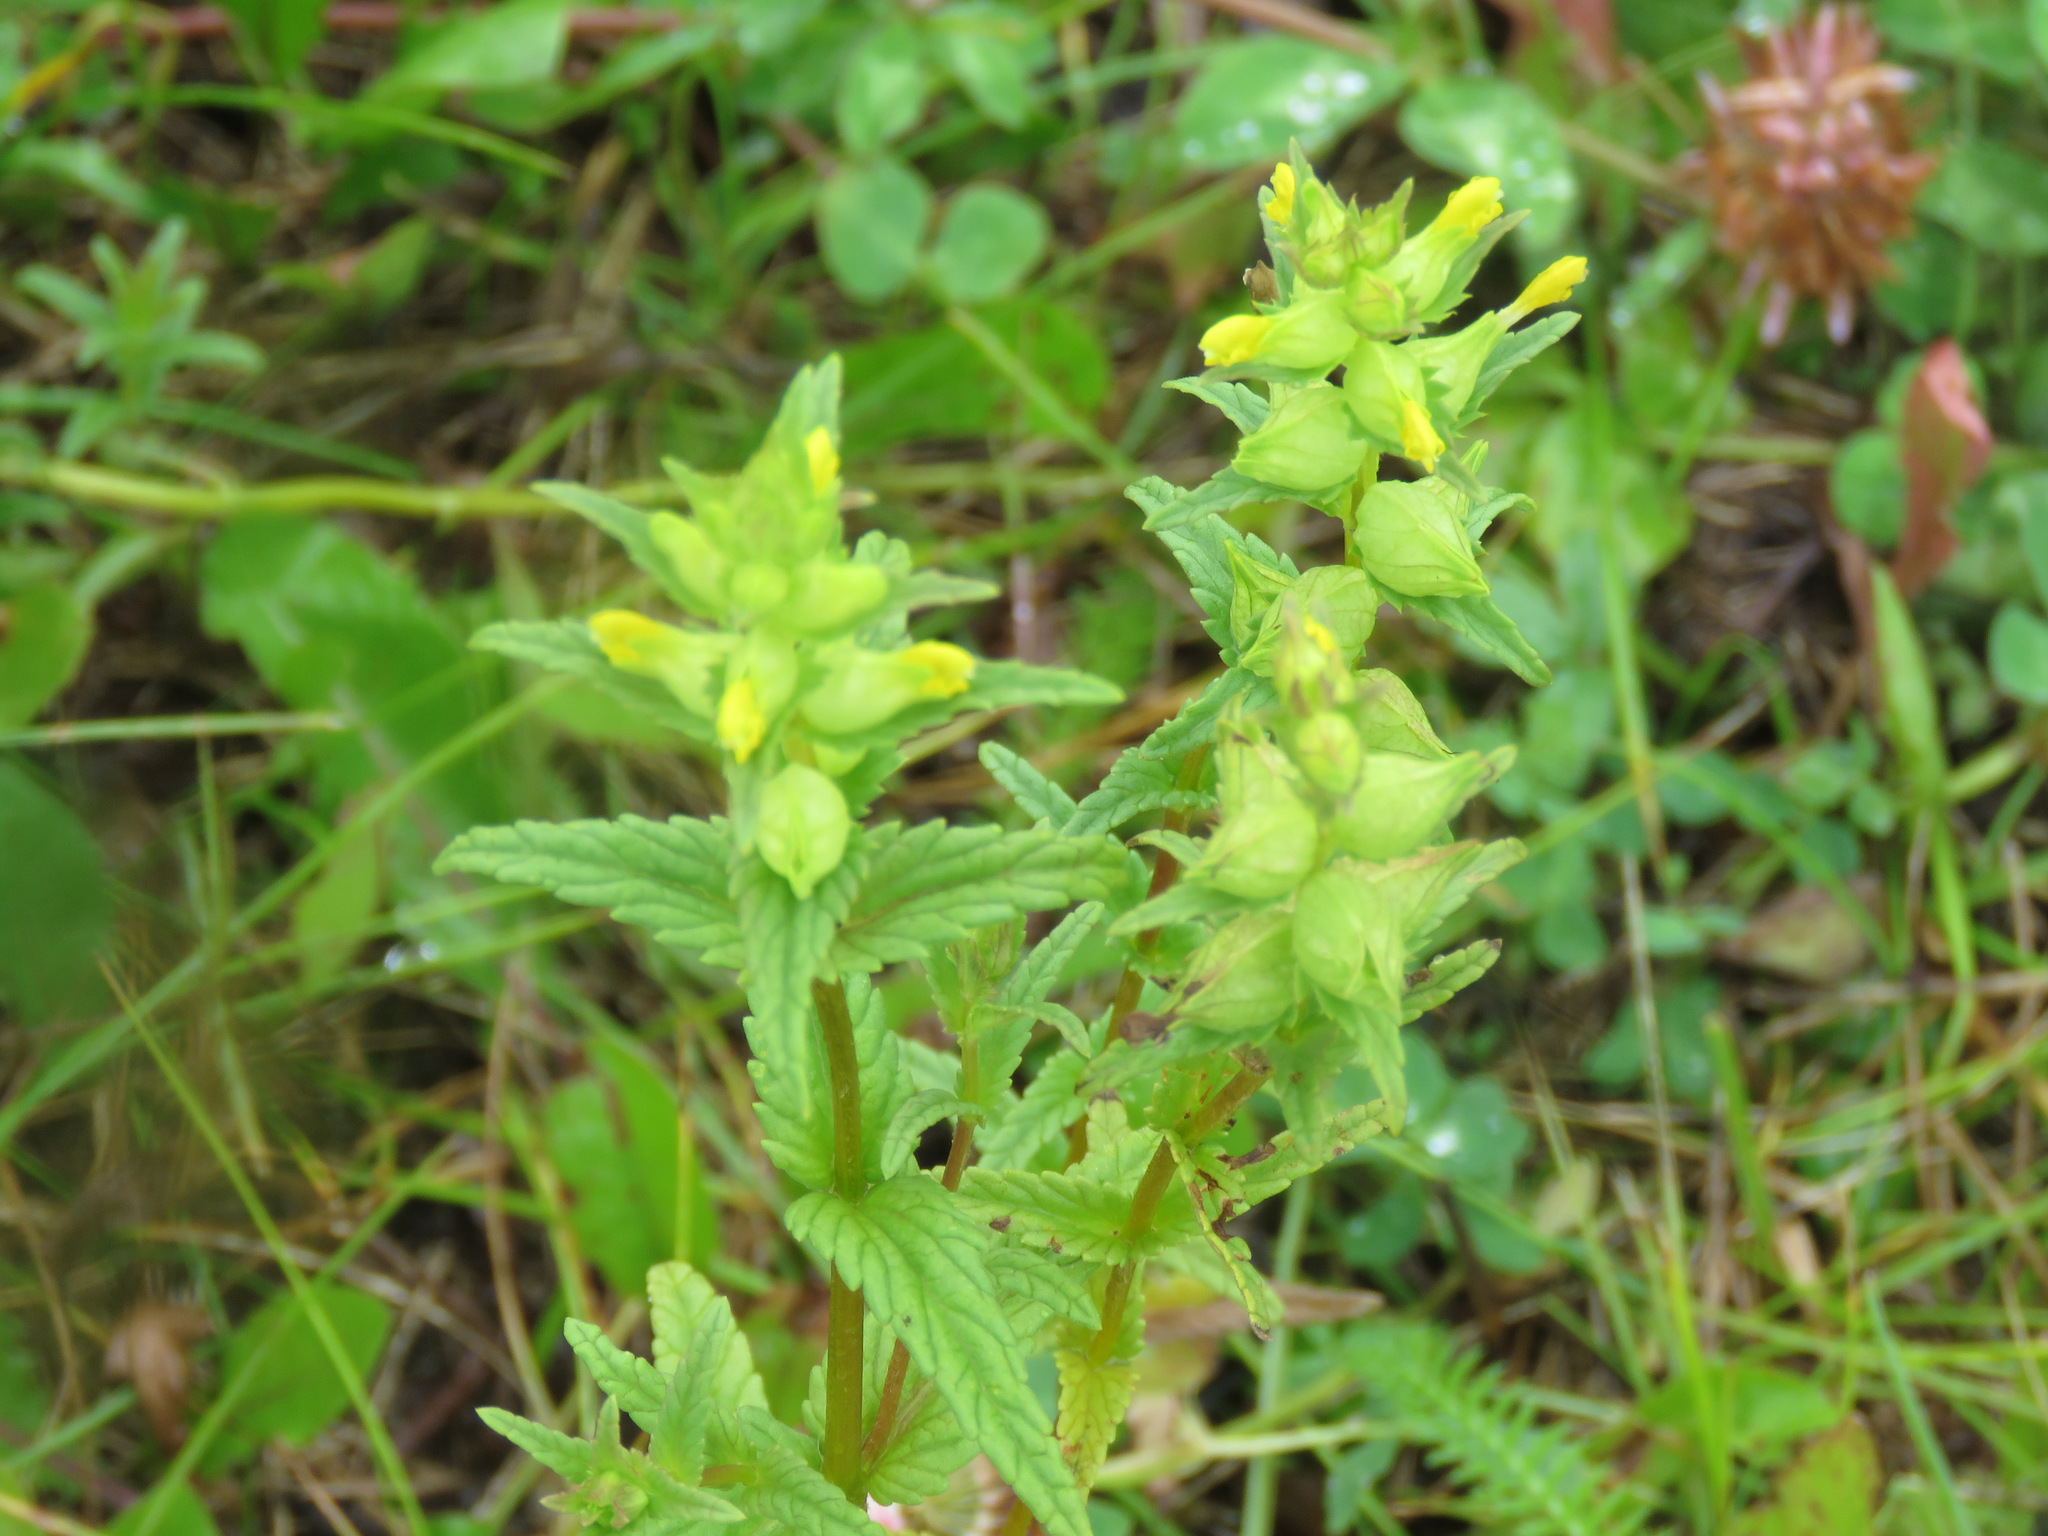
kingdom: Plantae
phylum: Tracheophyta
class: Magnoliopsida
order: Lamiales
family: Orobanchaceae
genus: Rhinanthus
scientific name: Rhinanthus minor
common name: Yellow-rattle
